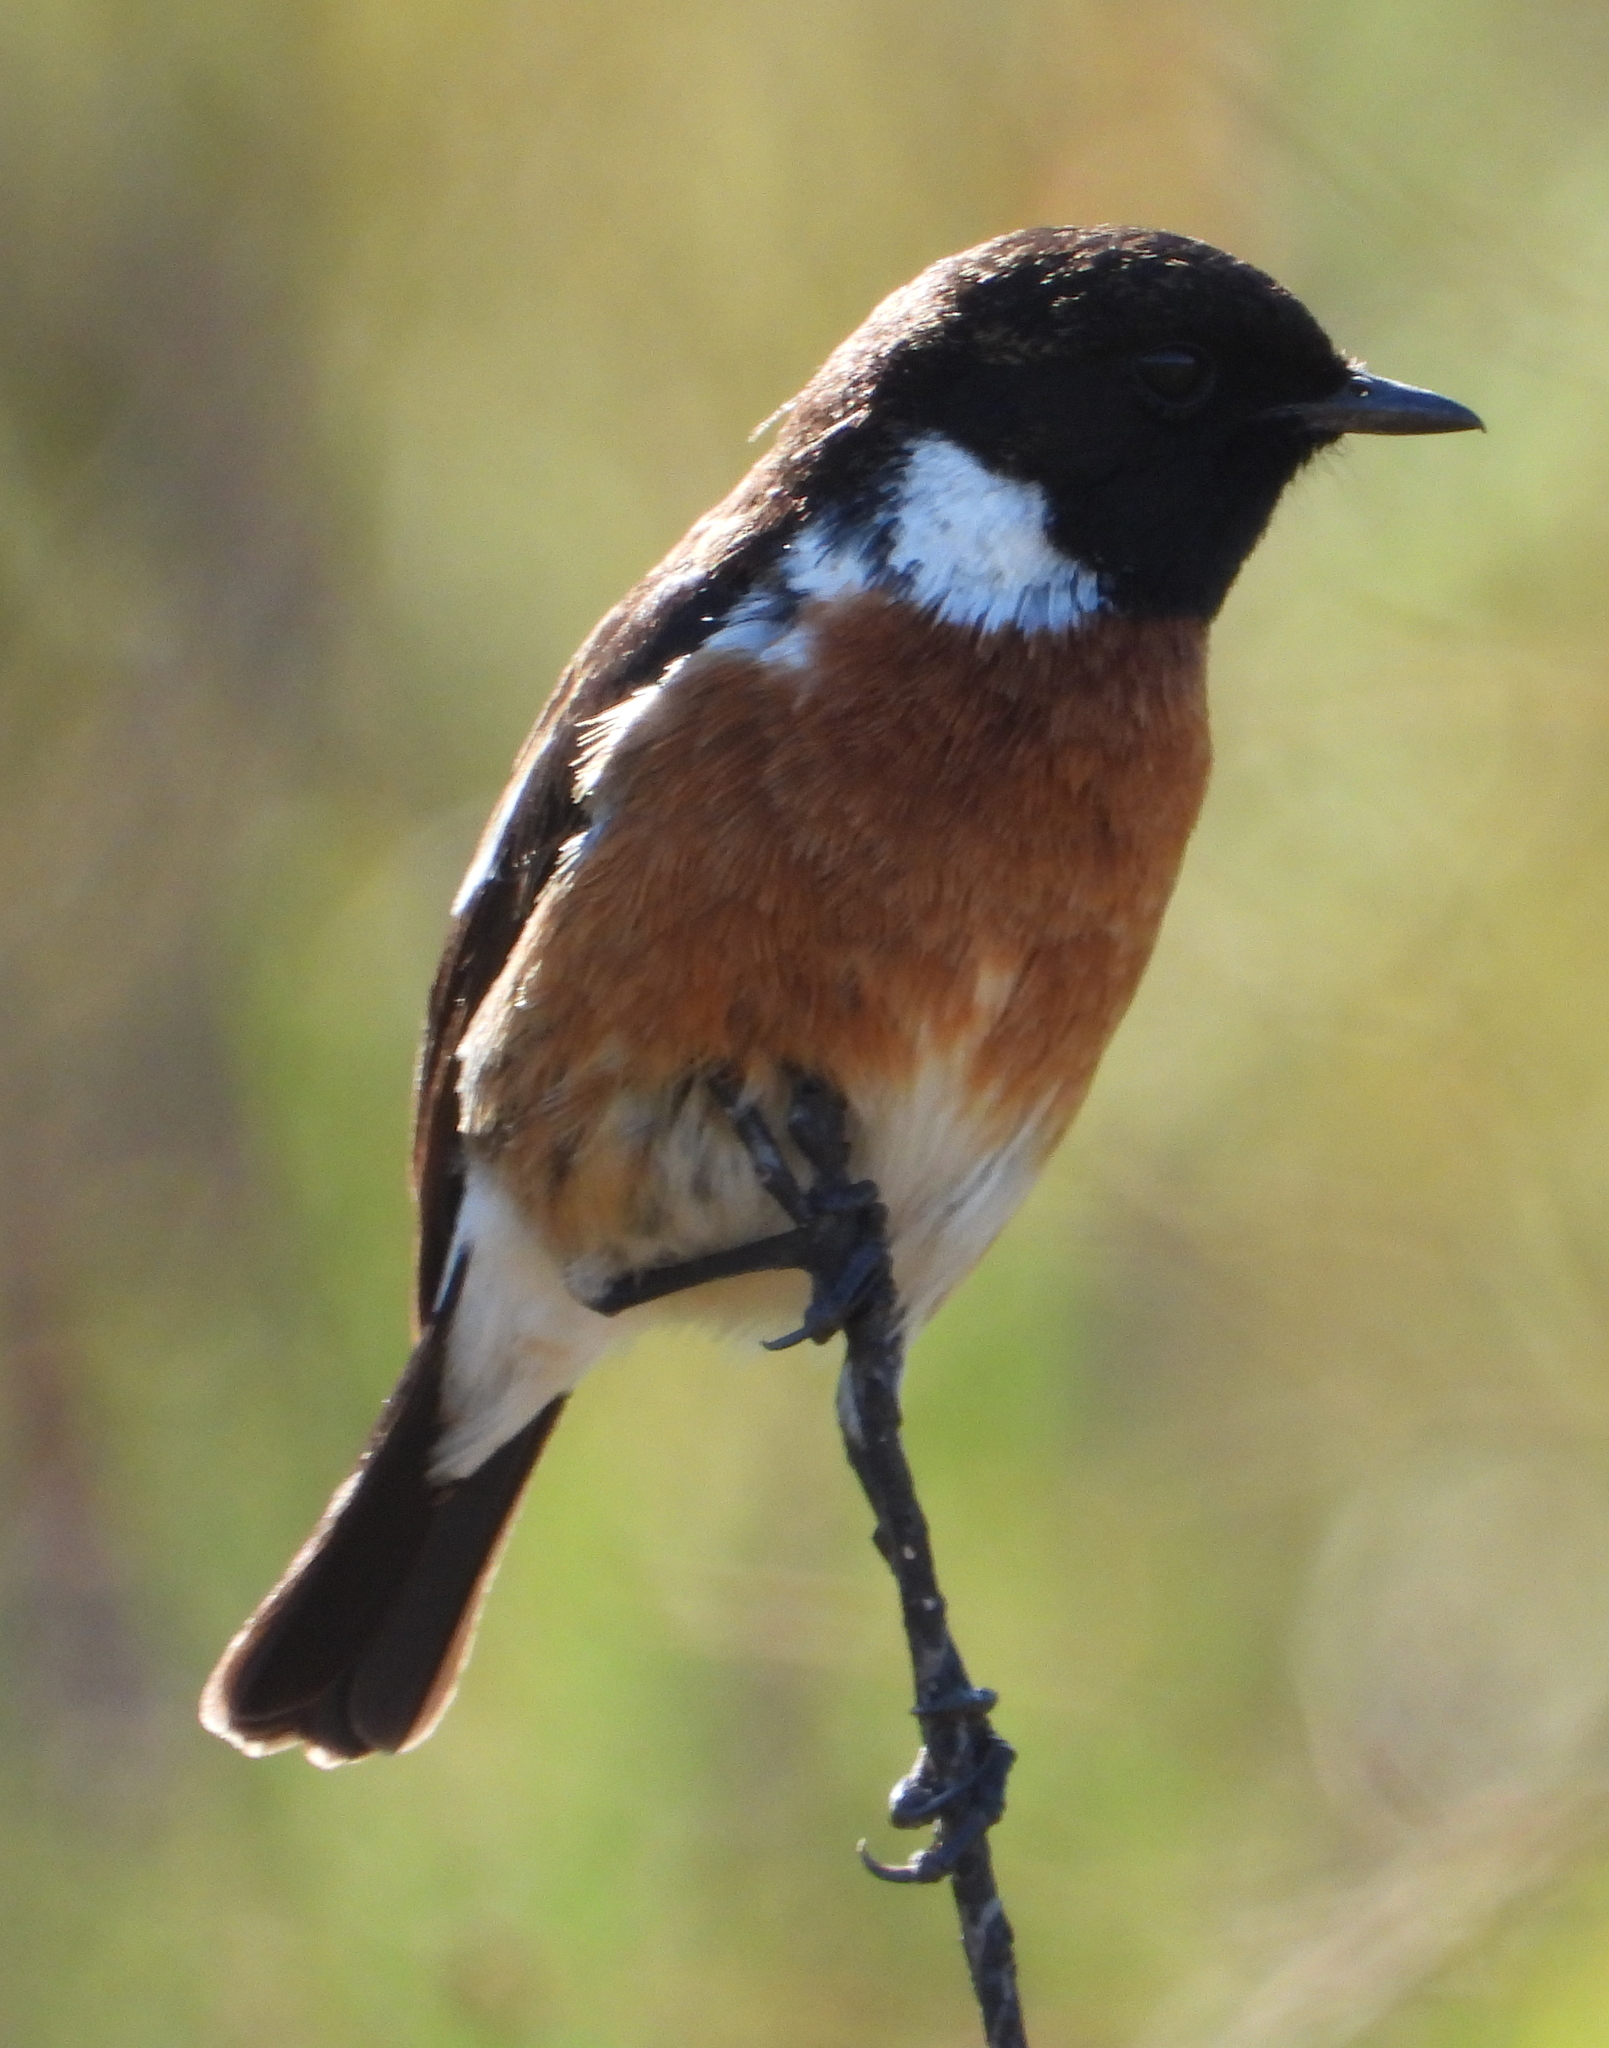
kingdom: Animalia
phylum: Chordata
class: Aves
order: Passeriformes
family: Muscicapidae
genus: Saxicola
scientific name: Saxicola torquatus
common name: African stonechat
